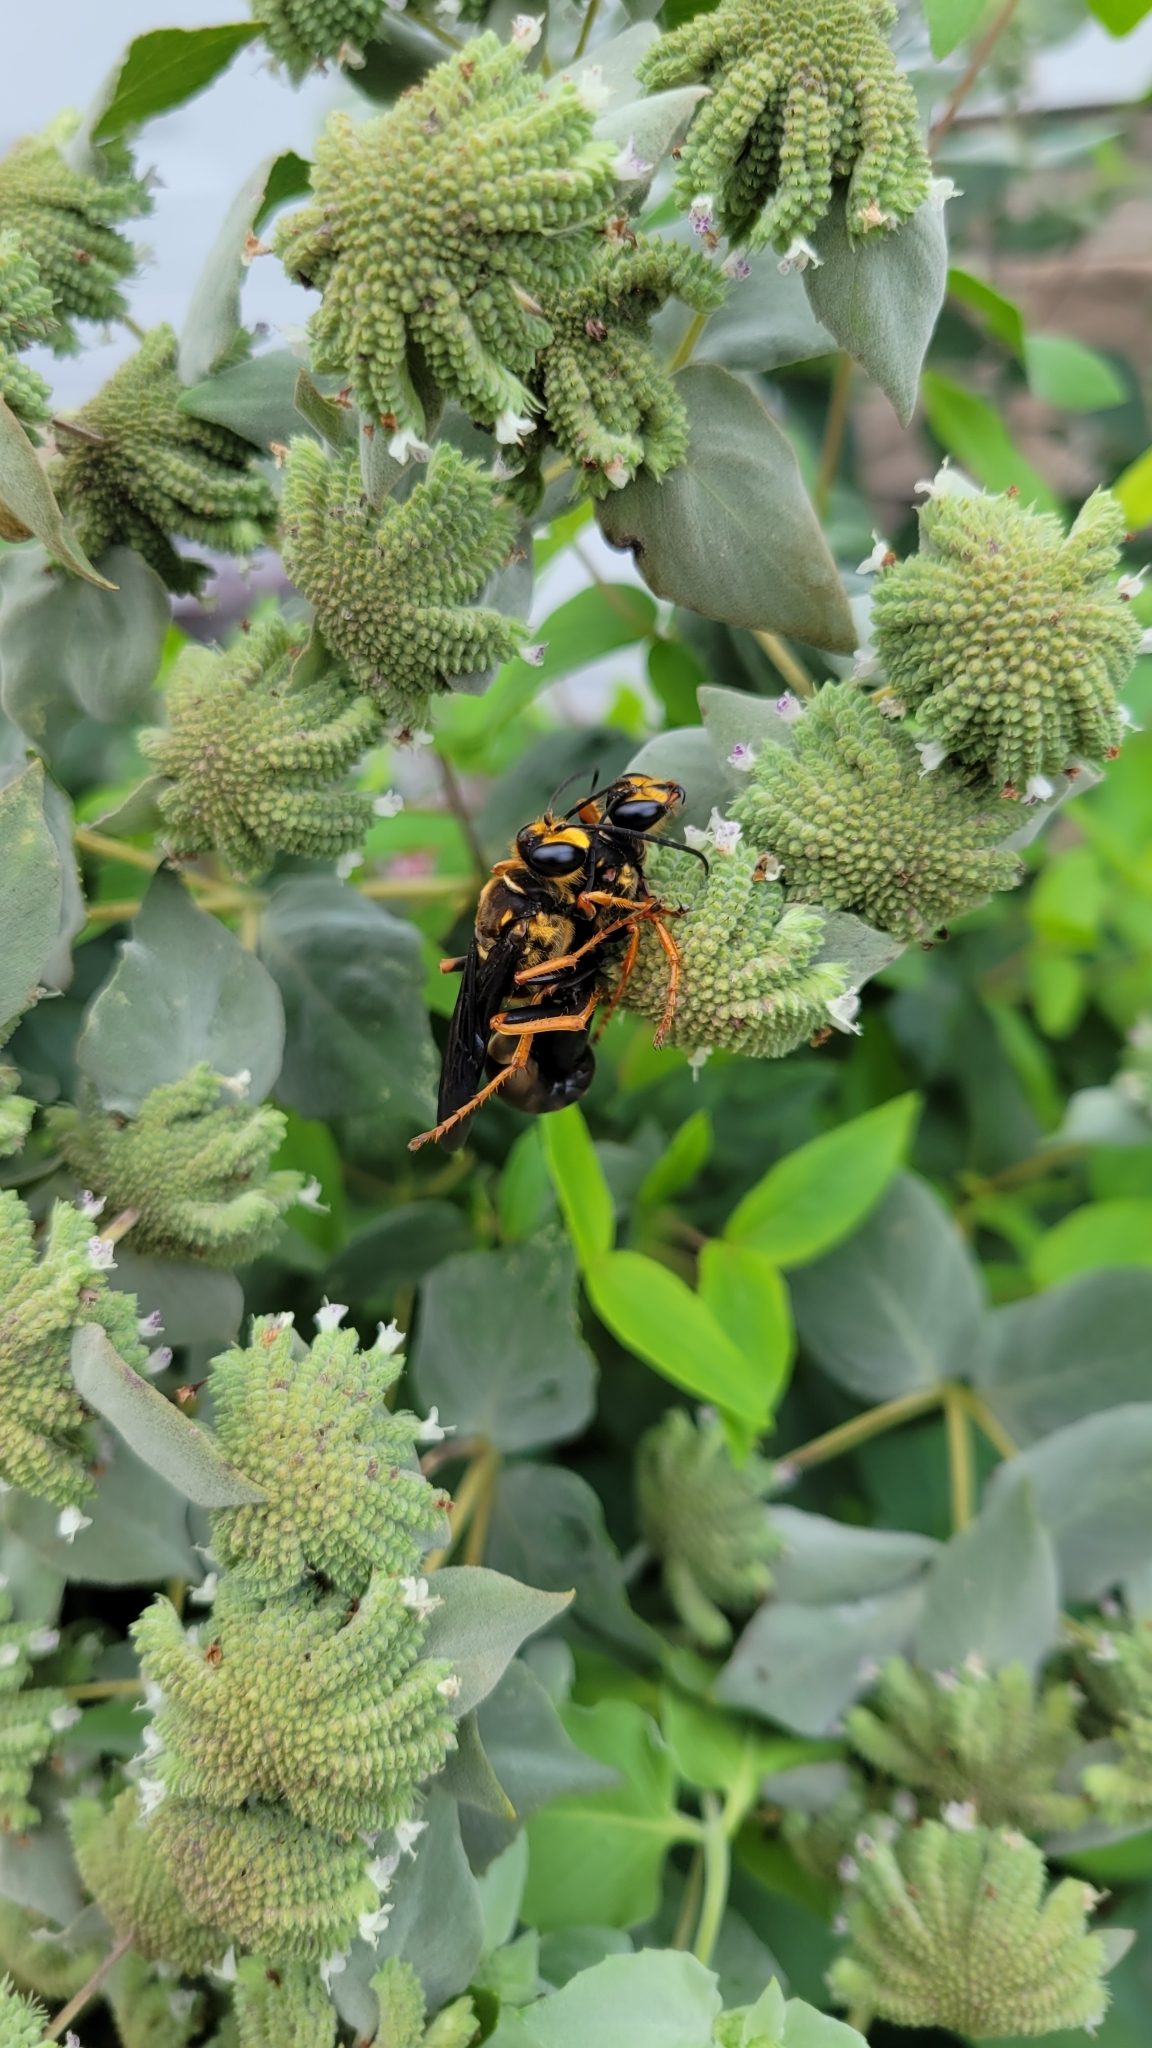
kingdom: Animalia
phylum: Arthropoda
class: Insecta
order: Hymenoptera
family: Sphecidae
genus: Sphex
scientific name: Sphex flavovestitus
